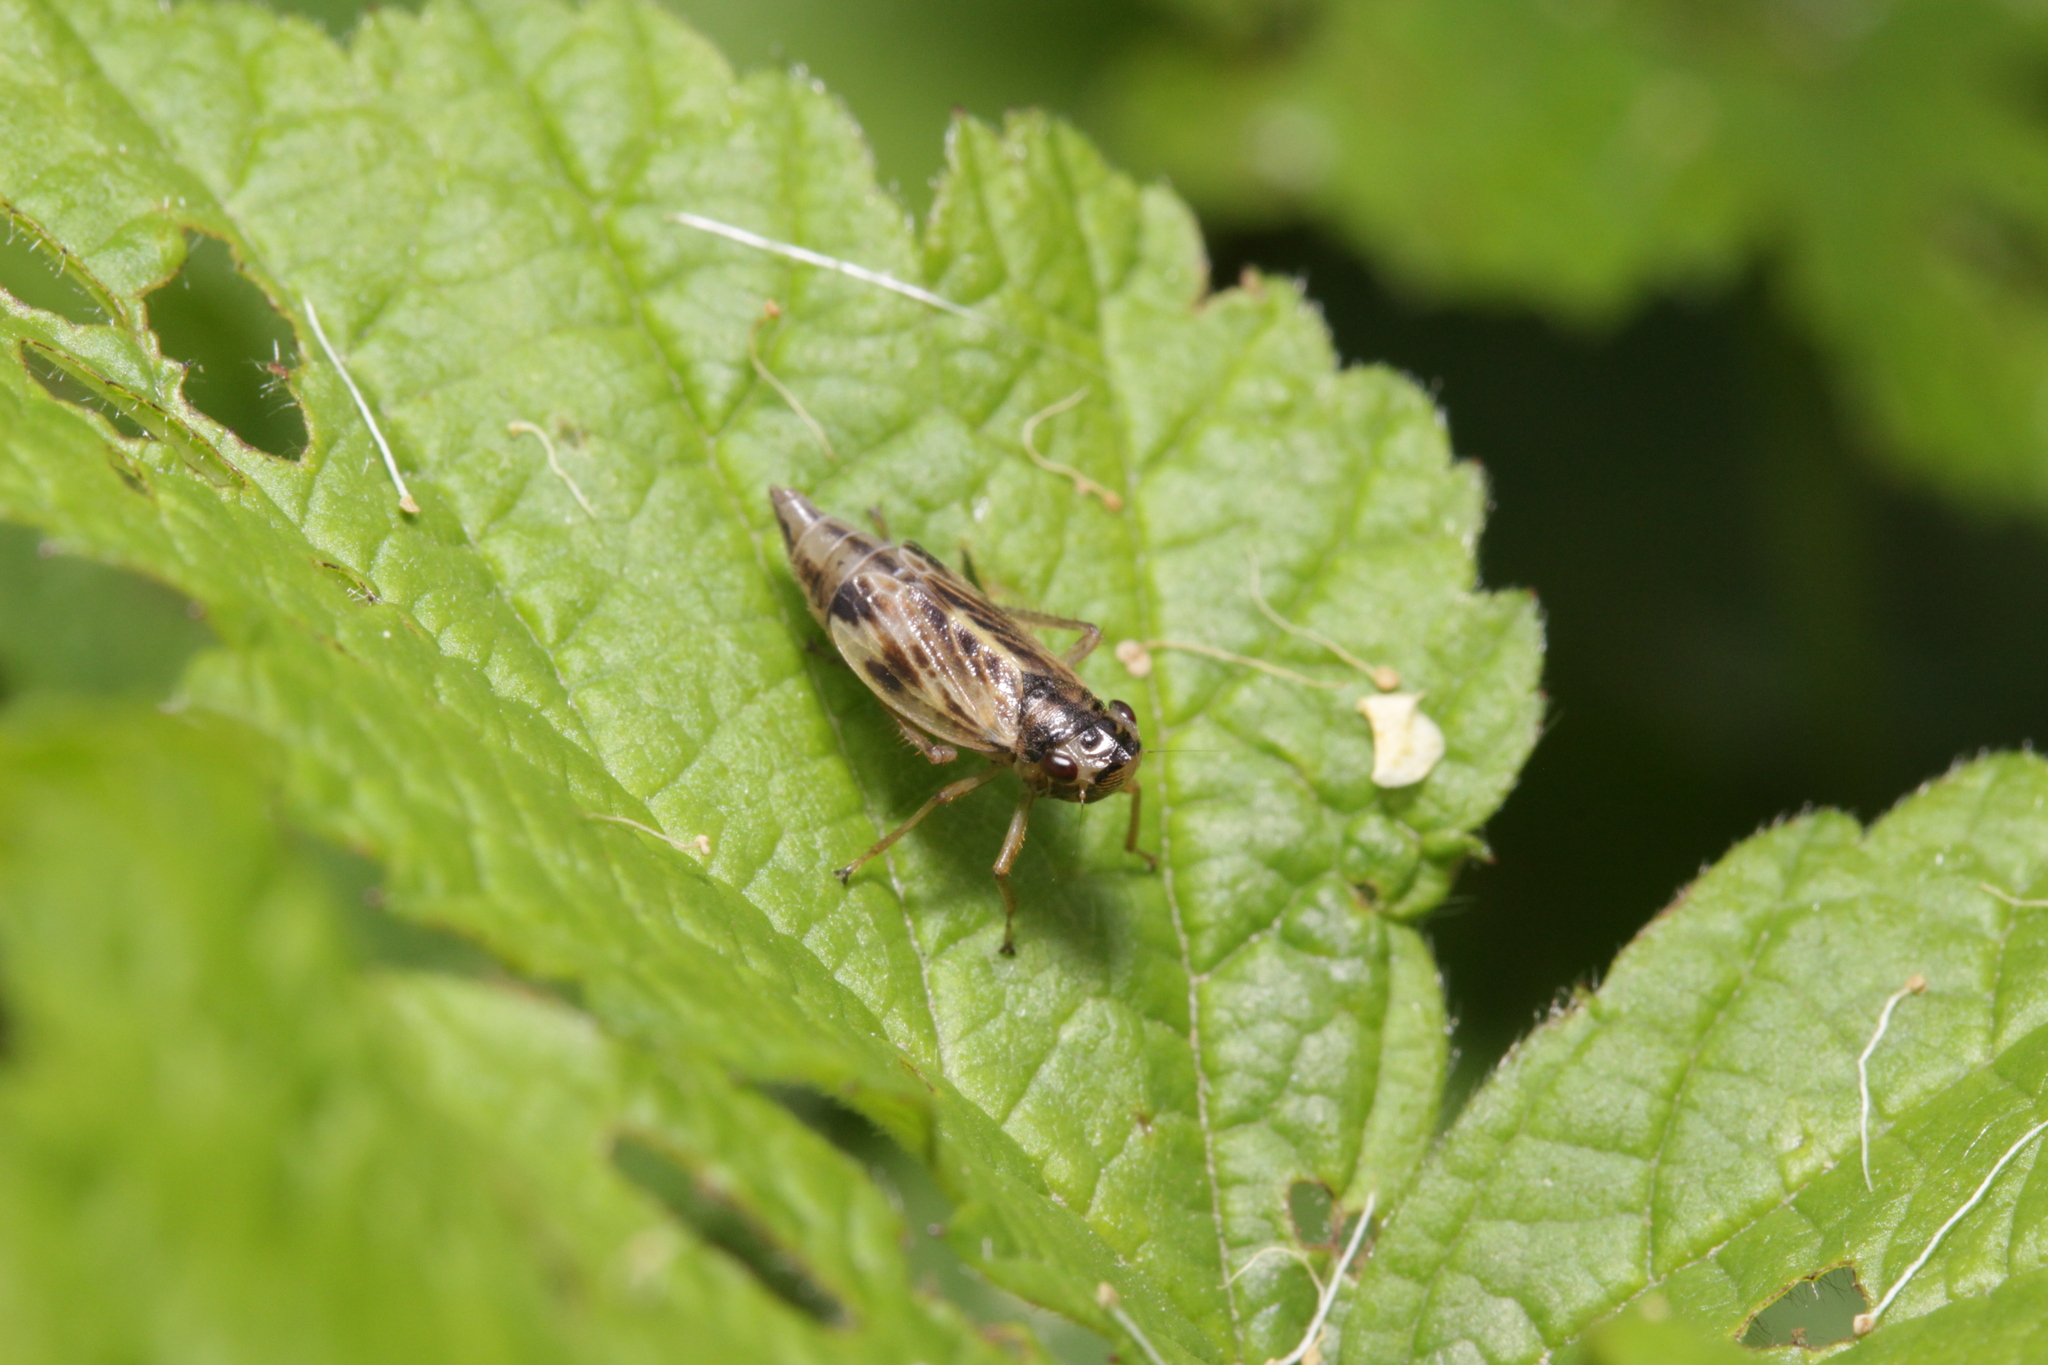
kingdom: Animalia
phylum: Arthropoda
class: Insecta
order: Hemiptera
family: Cicadellidae
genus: Evacanthus
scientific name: Evacanthus acuminatus
